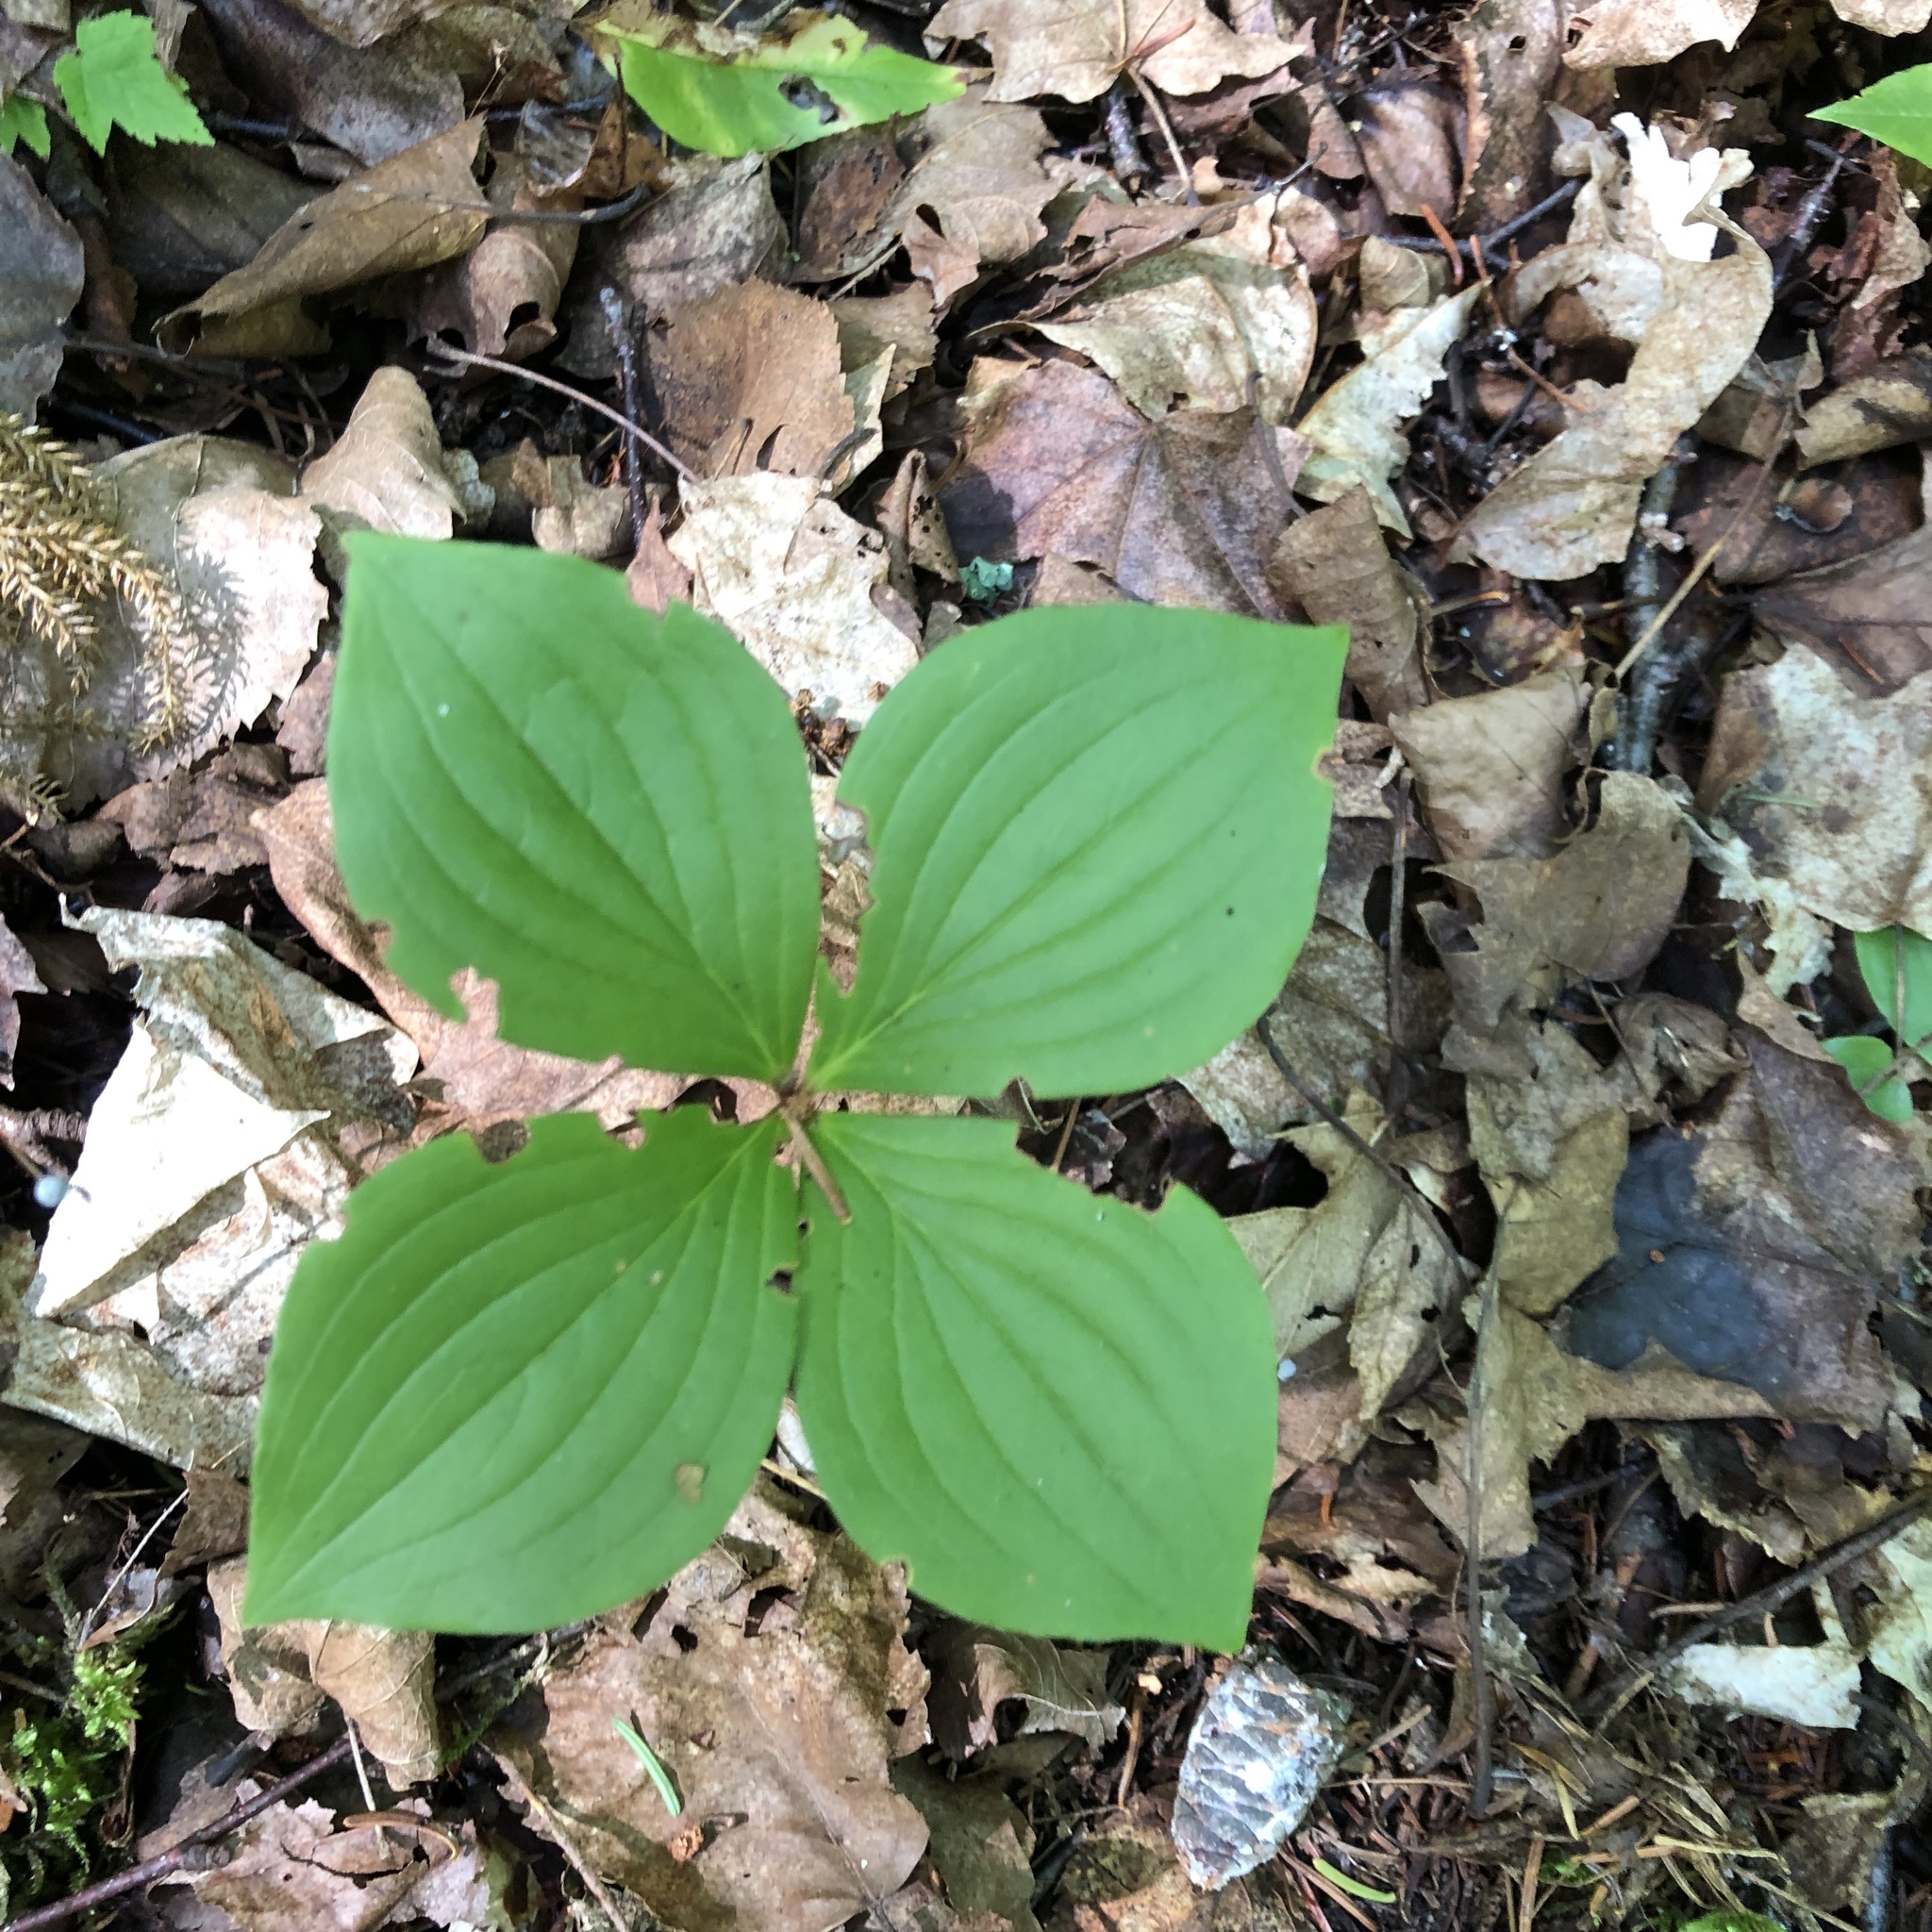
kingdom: Plantae
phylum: Tracheophyta
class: Magnoliopsida
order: Cornales
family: Cornaceae
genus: Cornus
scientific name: Cornus canadensis
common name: Creeping dogwood
